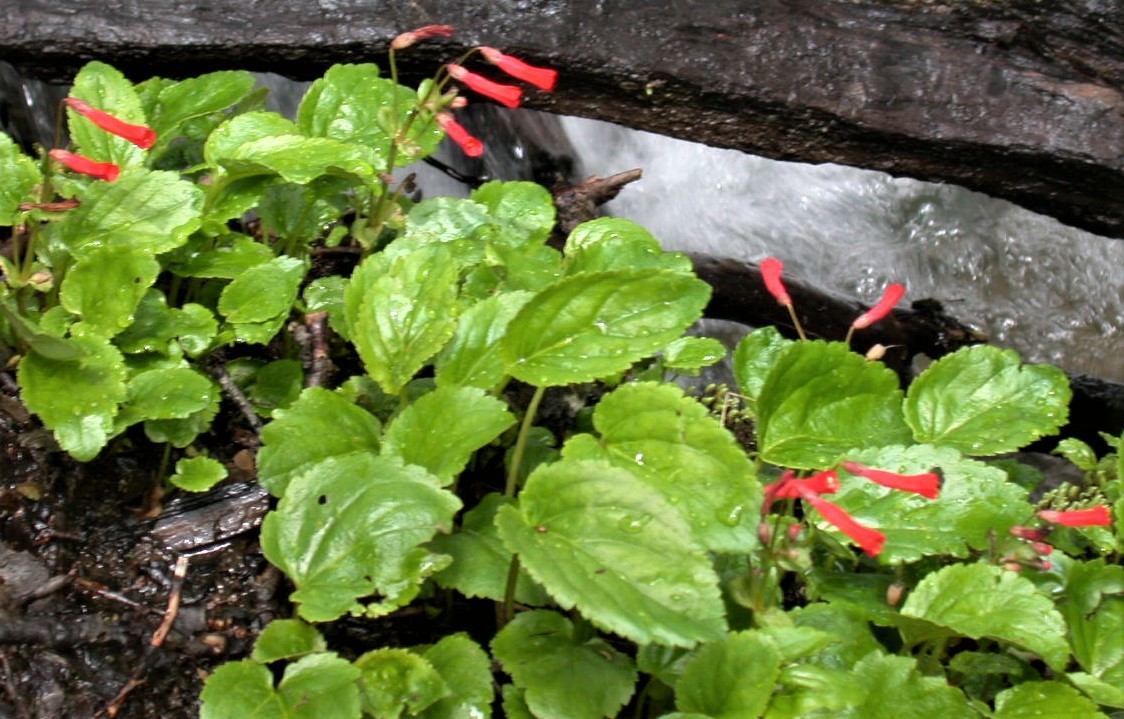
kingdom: Plantae
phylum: Tracheophyta
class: Magnoliopsida
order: Lamiales
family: Plantaginaceae
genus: Ourisia
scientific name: Ourisia ruellioides
